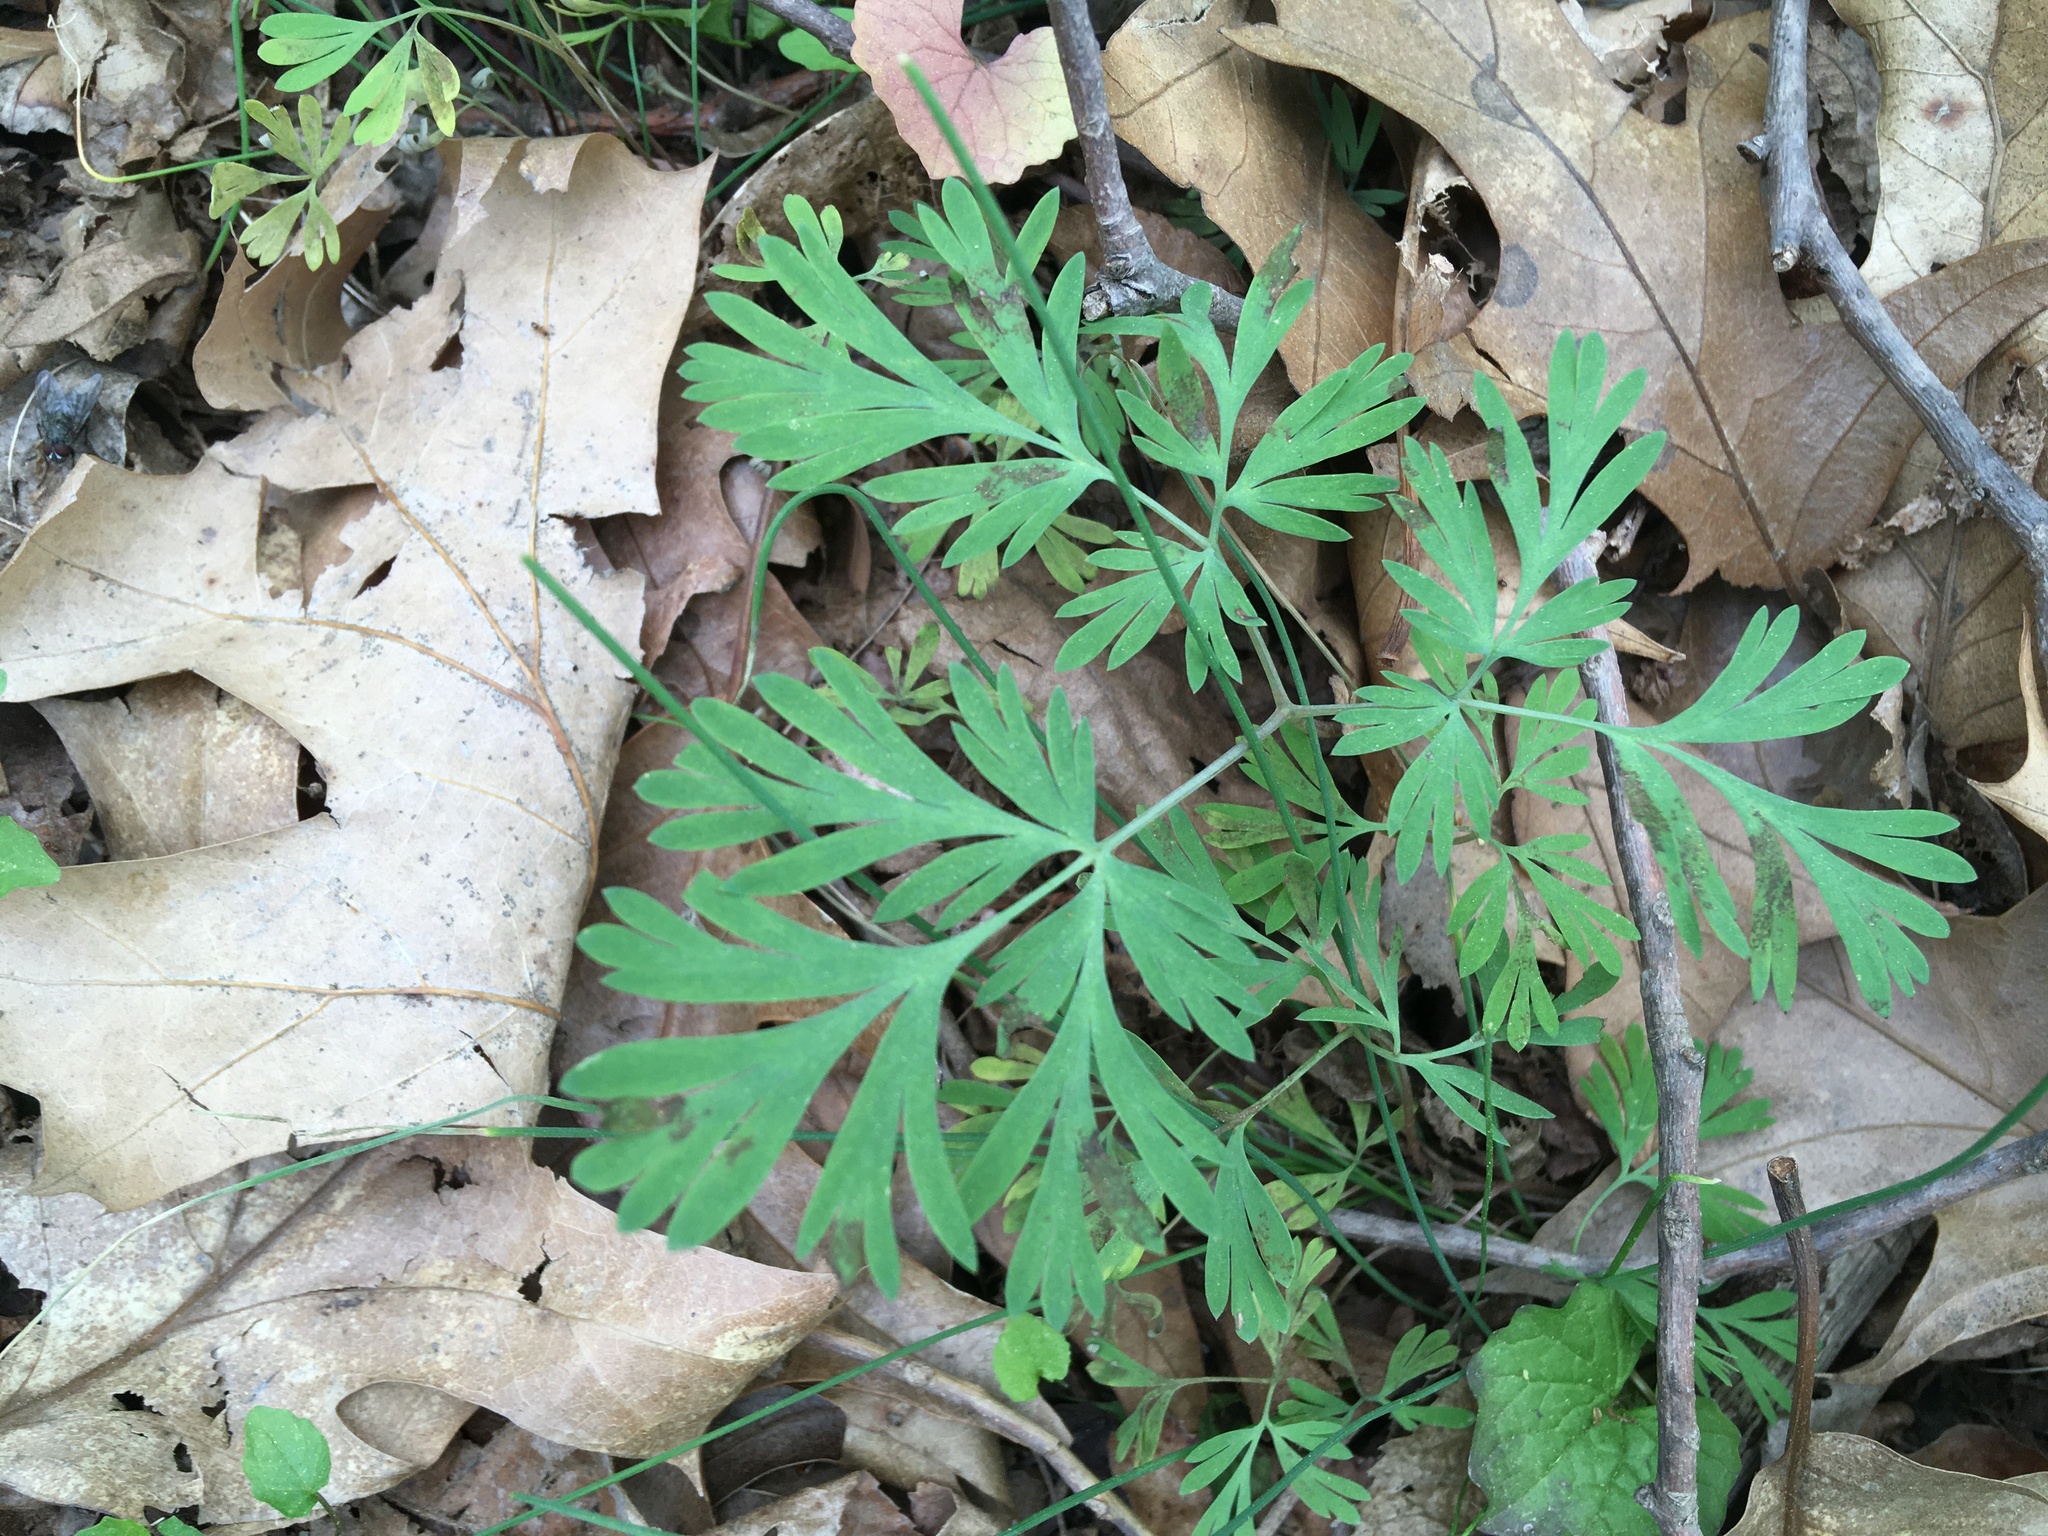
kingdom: Plantae
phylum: Tracheophyta
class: Magnoliopsida
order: Ranunculales
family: Papaveraceae
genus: Dicentra
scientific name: Dicentra cucullaria
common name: Dutchman's breeches
